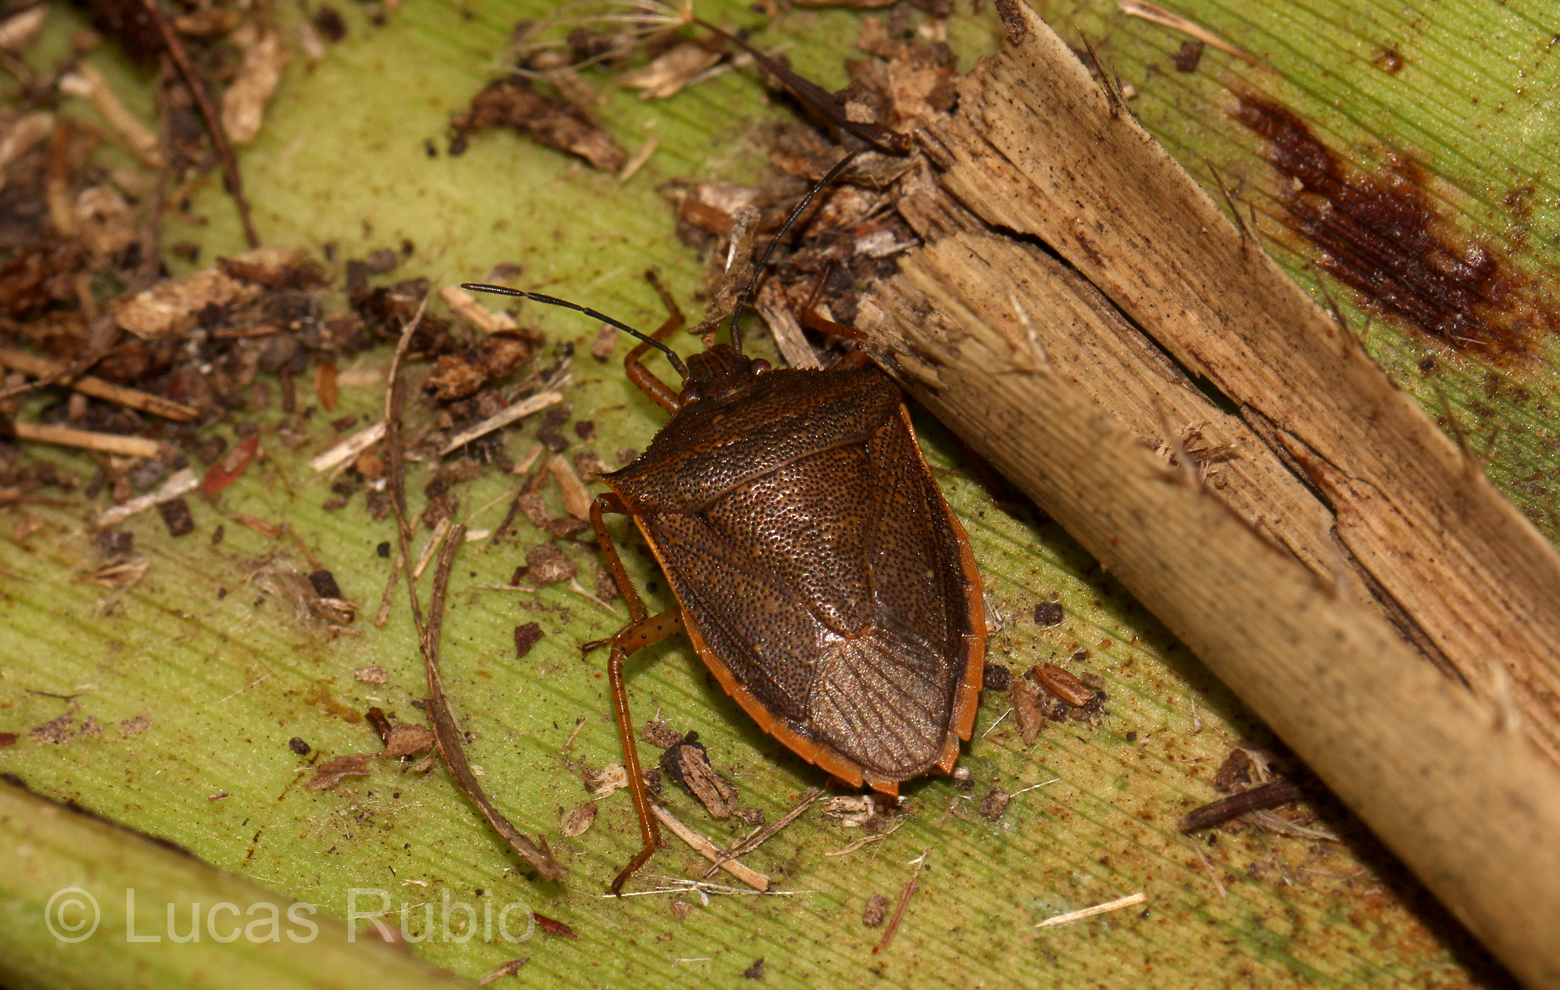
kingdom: Animalia
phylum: Arthropoda
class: Insecta
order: Hemiptera
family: Pentatomidae
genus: Euschistus
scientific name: Euschistus
